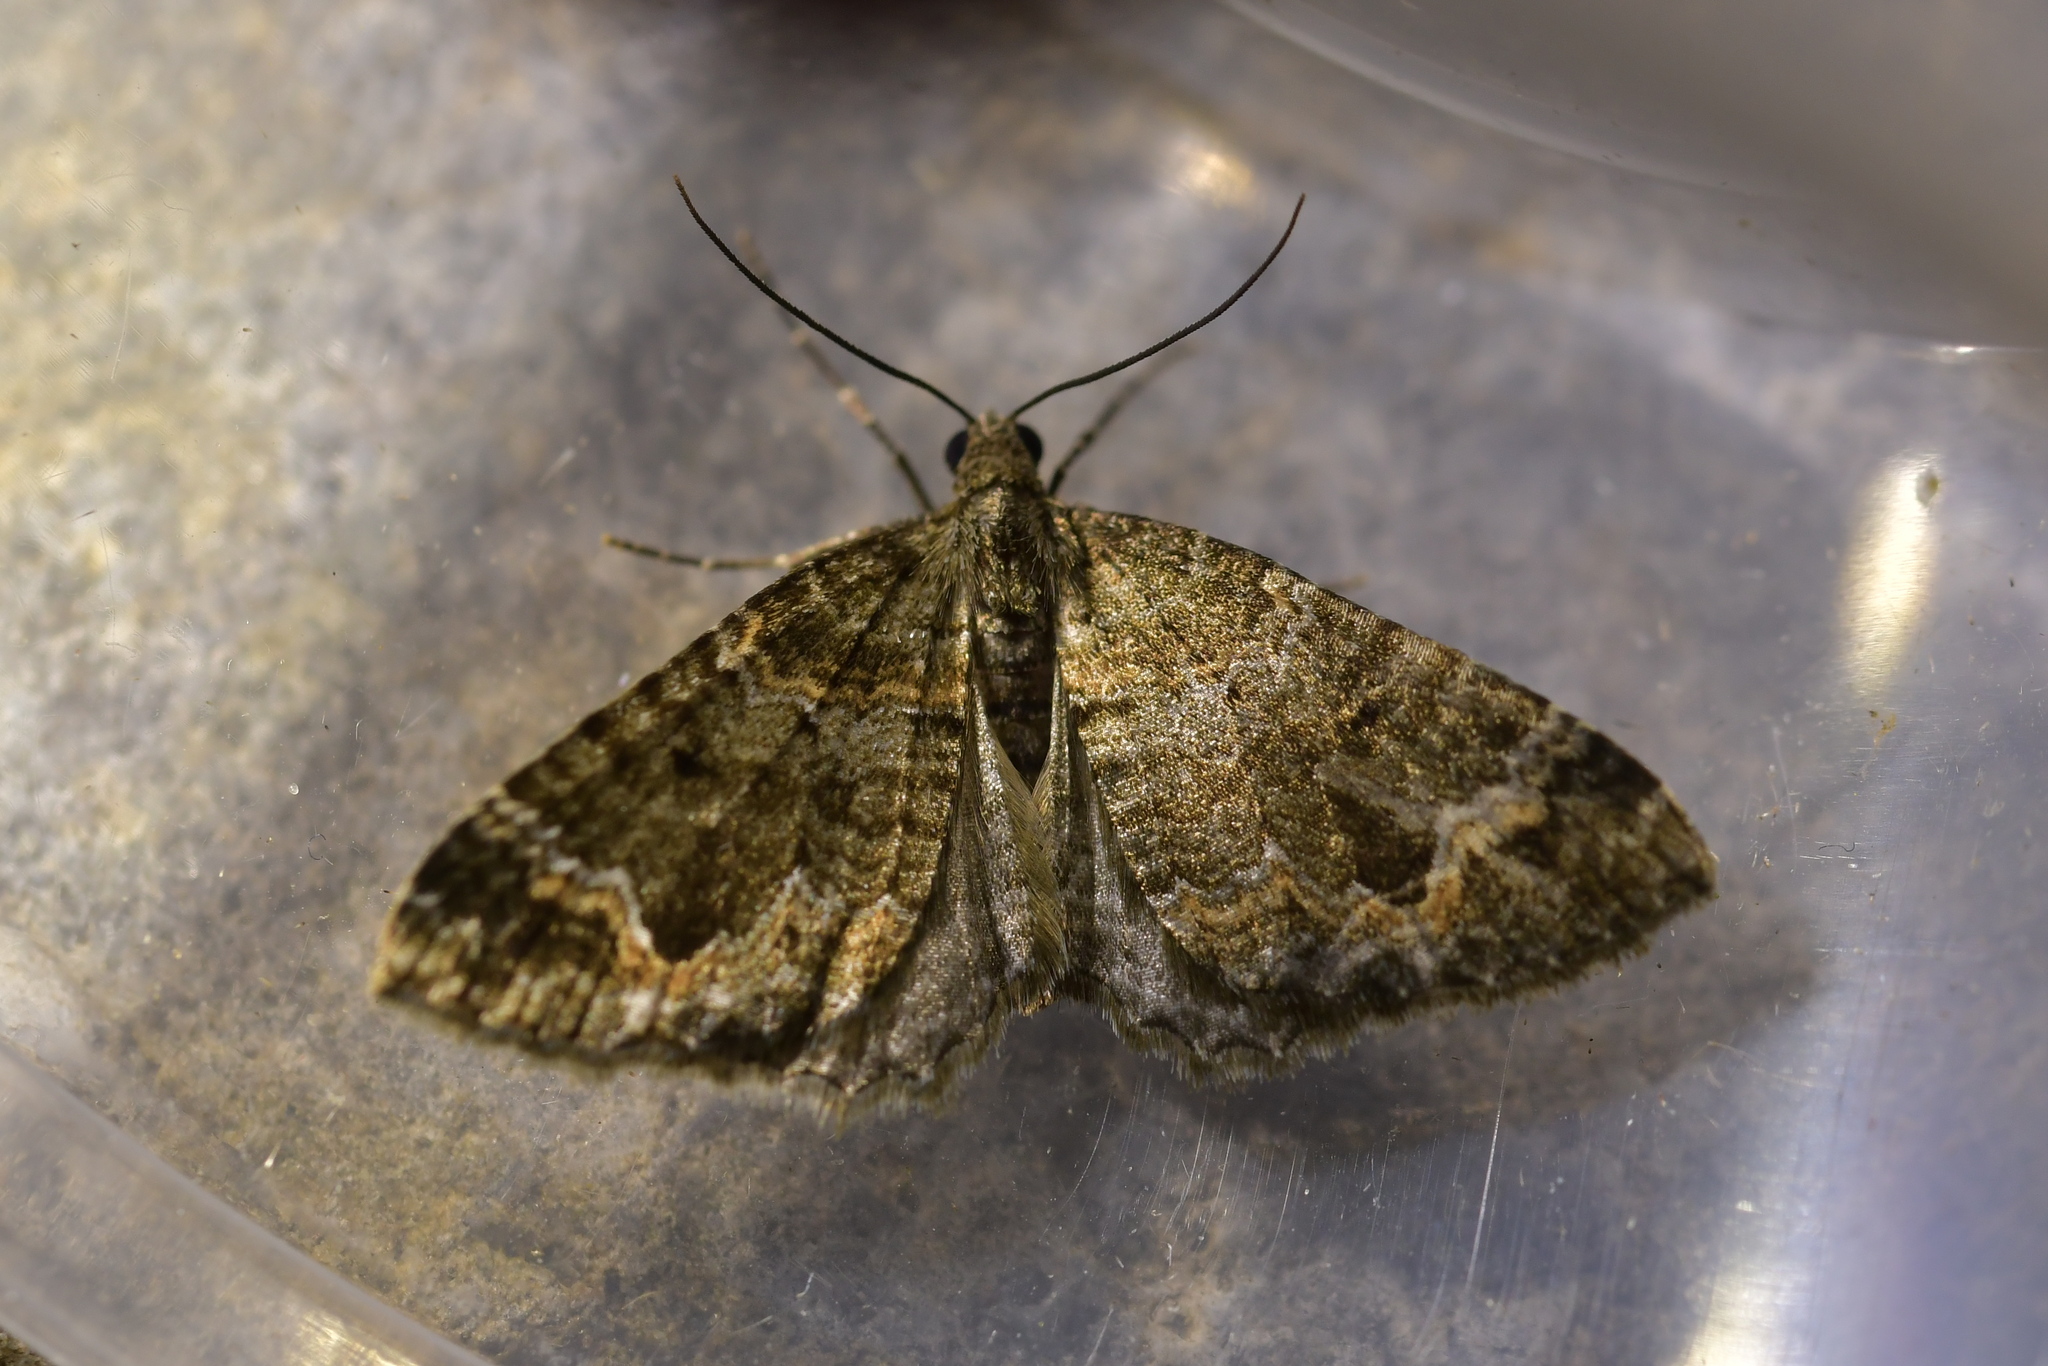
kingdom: Animalia
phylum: Arthropoda
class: Insecta
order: Lepidoptera
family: Geometridae
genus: Hydriomena
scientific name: Hydriomena hemizona
